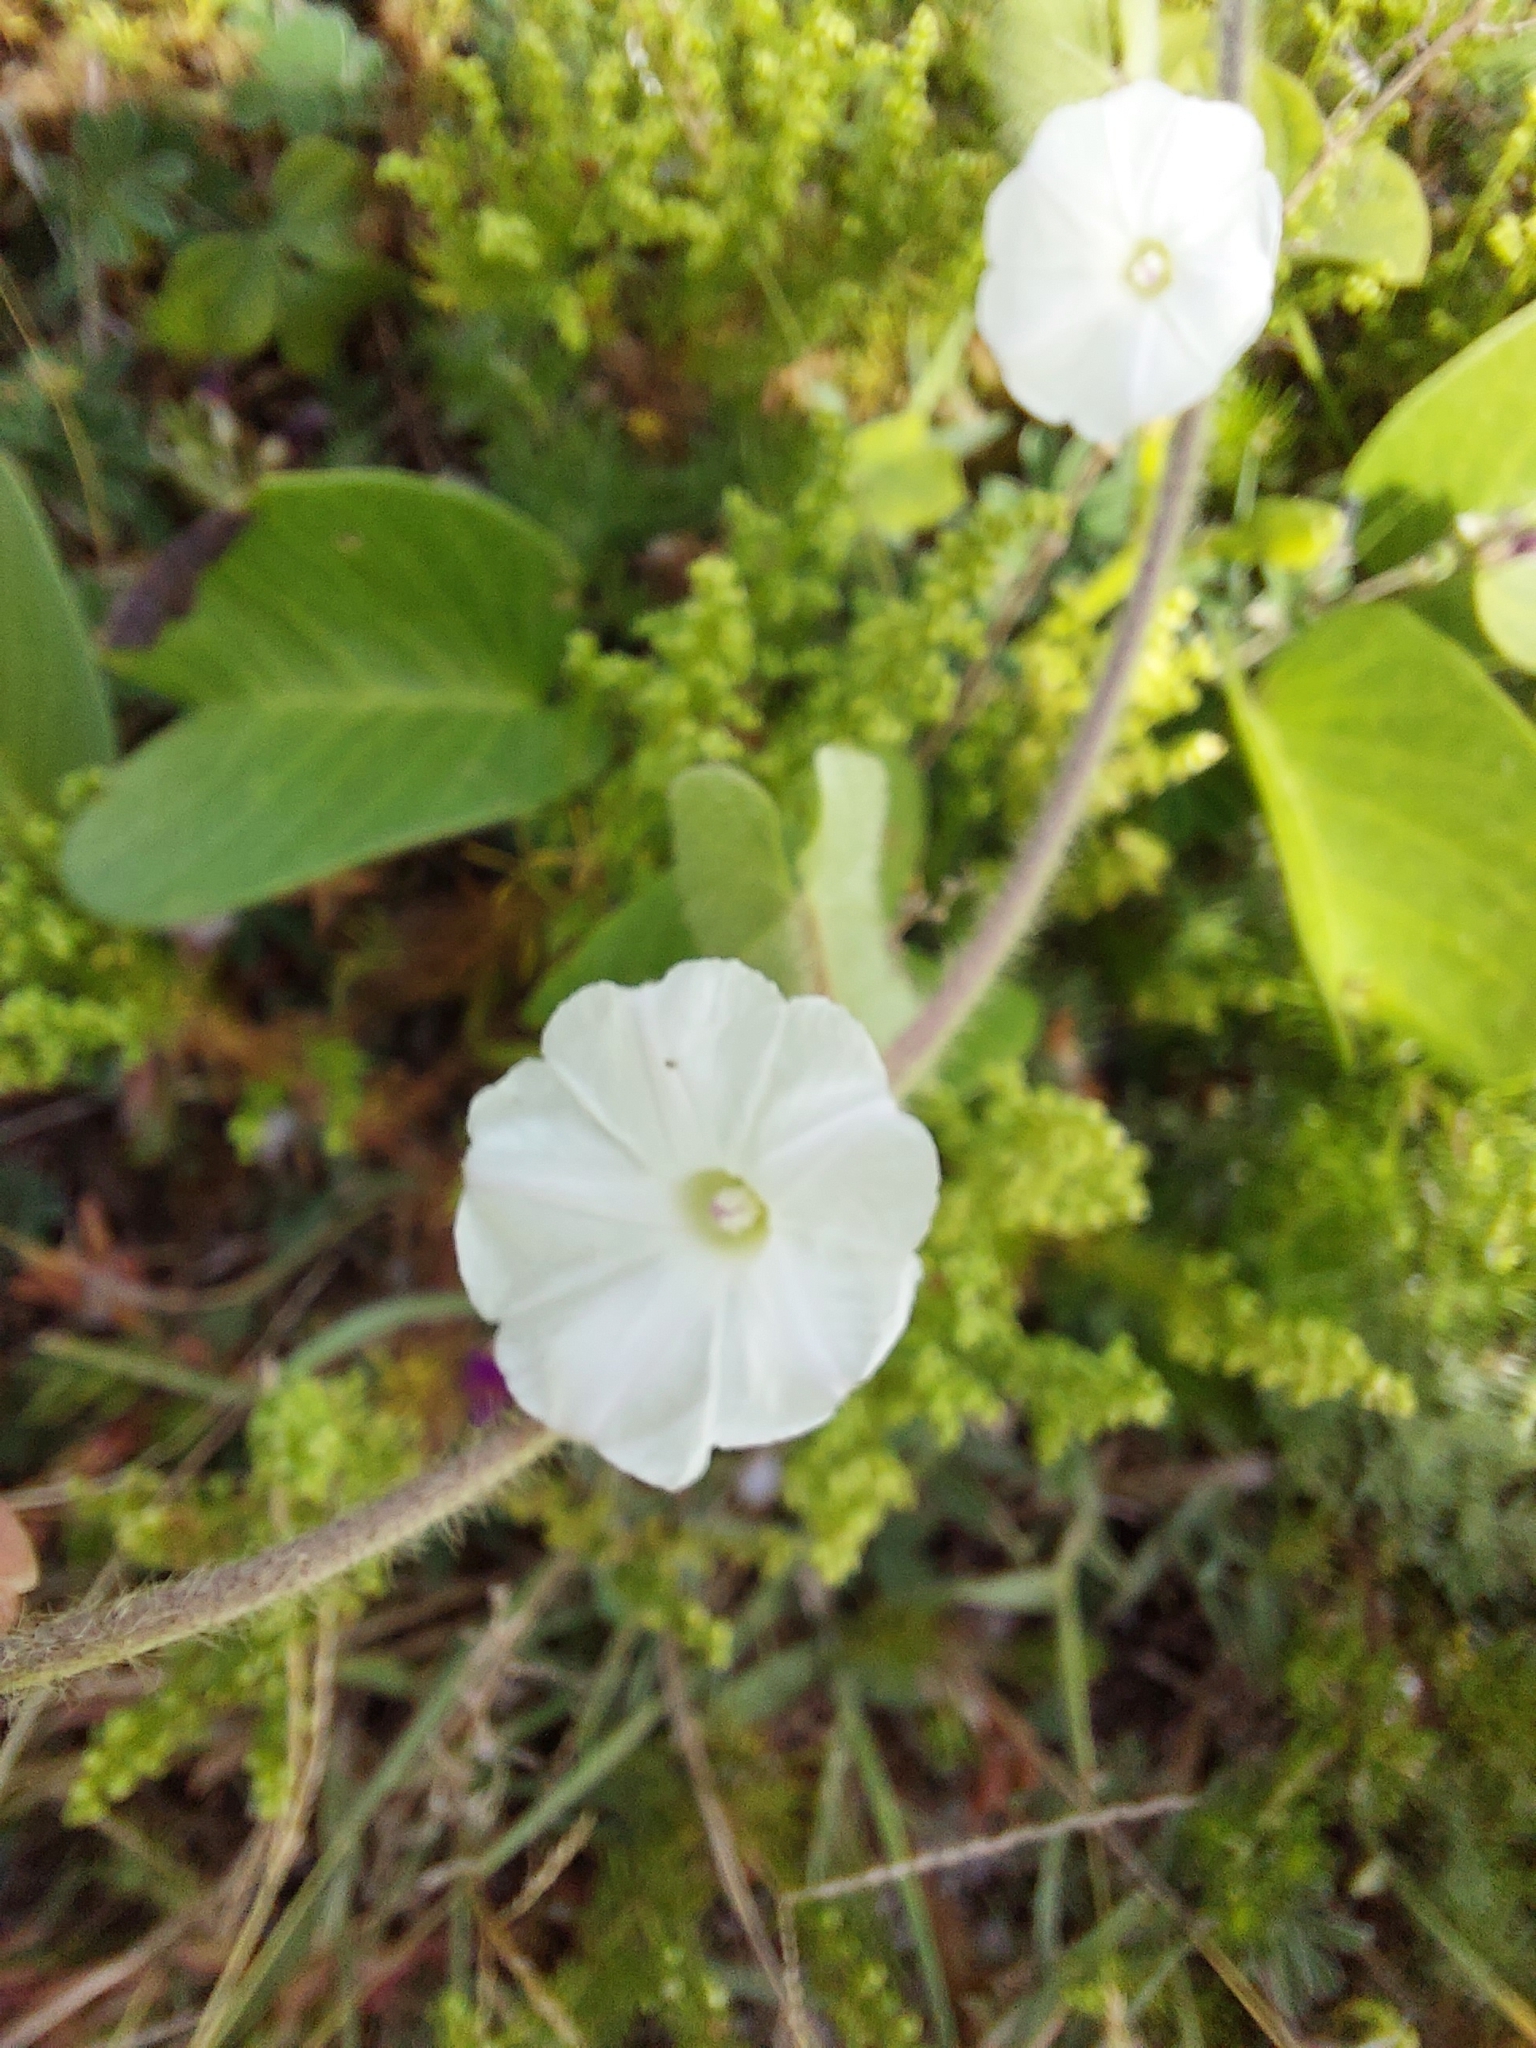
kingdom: Plantae
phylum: Tracheophyta
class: Magnoliopsida
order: Solanales
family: Convolvulaceae
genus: Ipomoea
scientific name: Ipomoea biflora
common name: Bellvine
